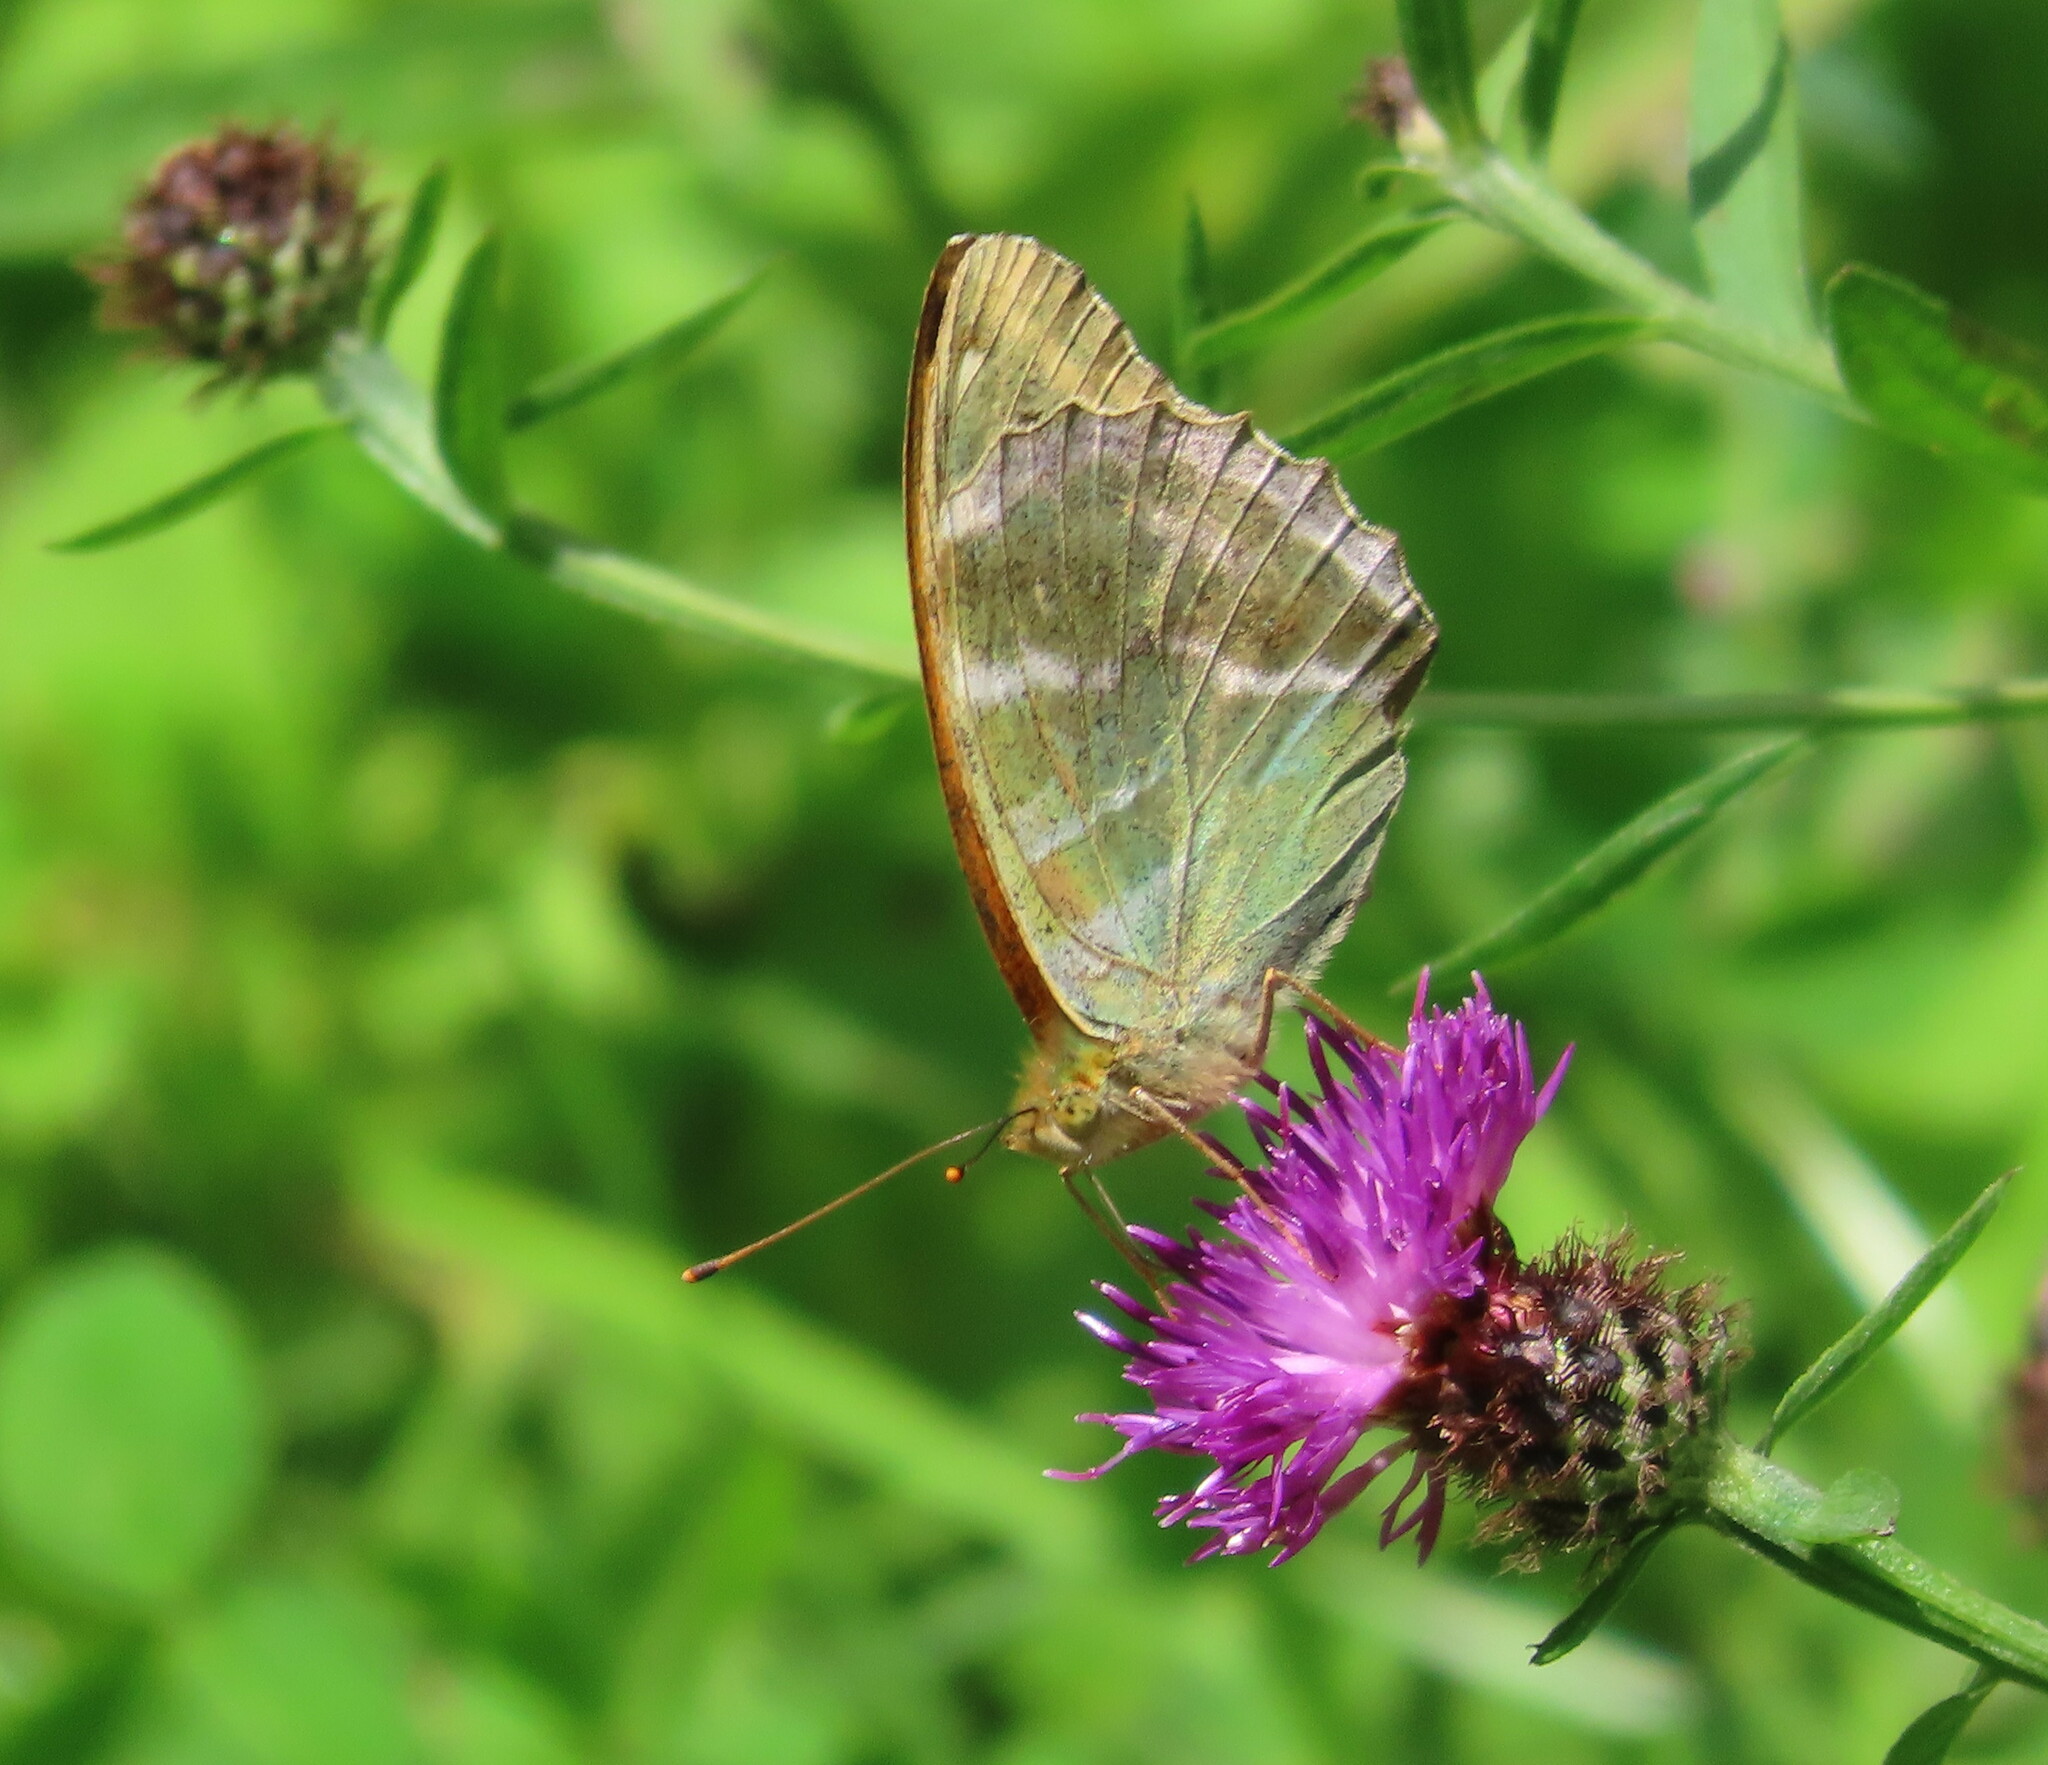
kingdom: Animalia
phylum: Arthropoda
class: Insecta
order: Lepidoptera
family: Nymphalidae
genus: Argynnis
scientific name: Argynnis paphia
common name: Silver-washed fritillary
